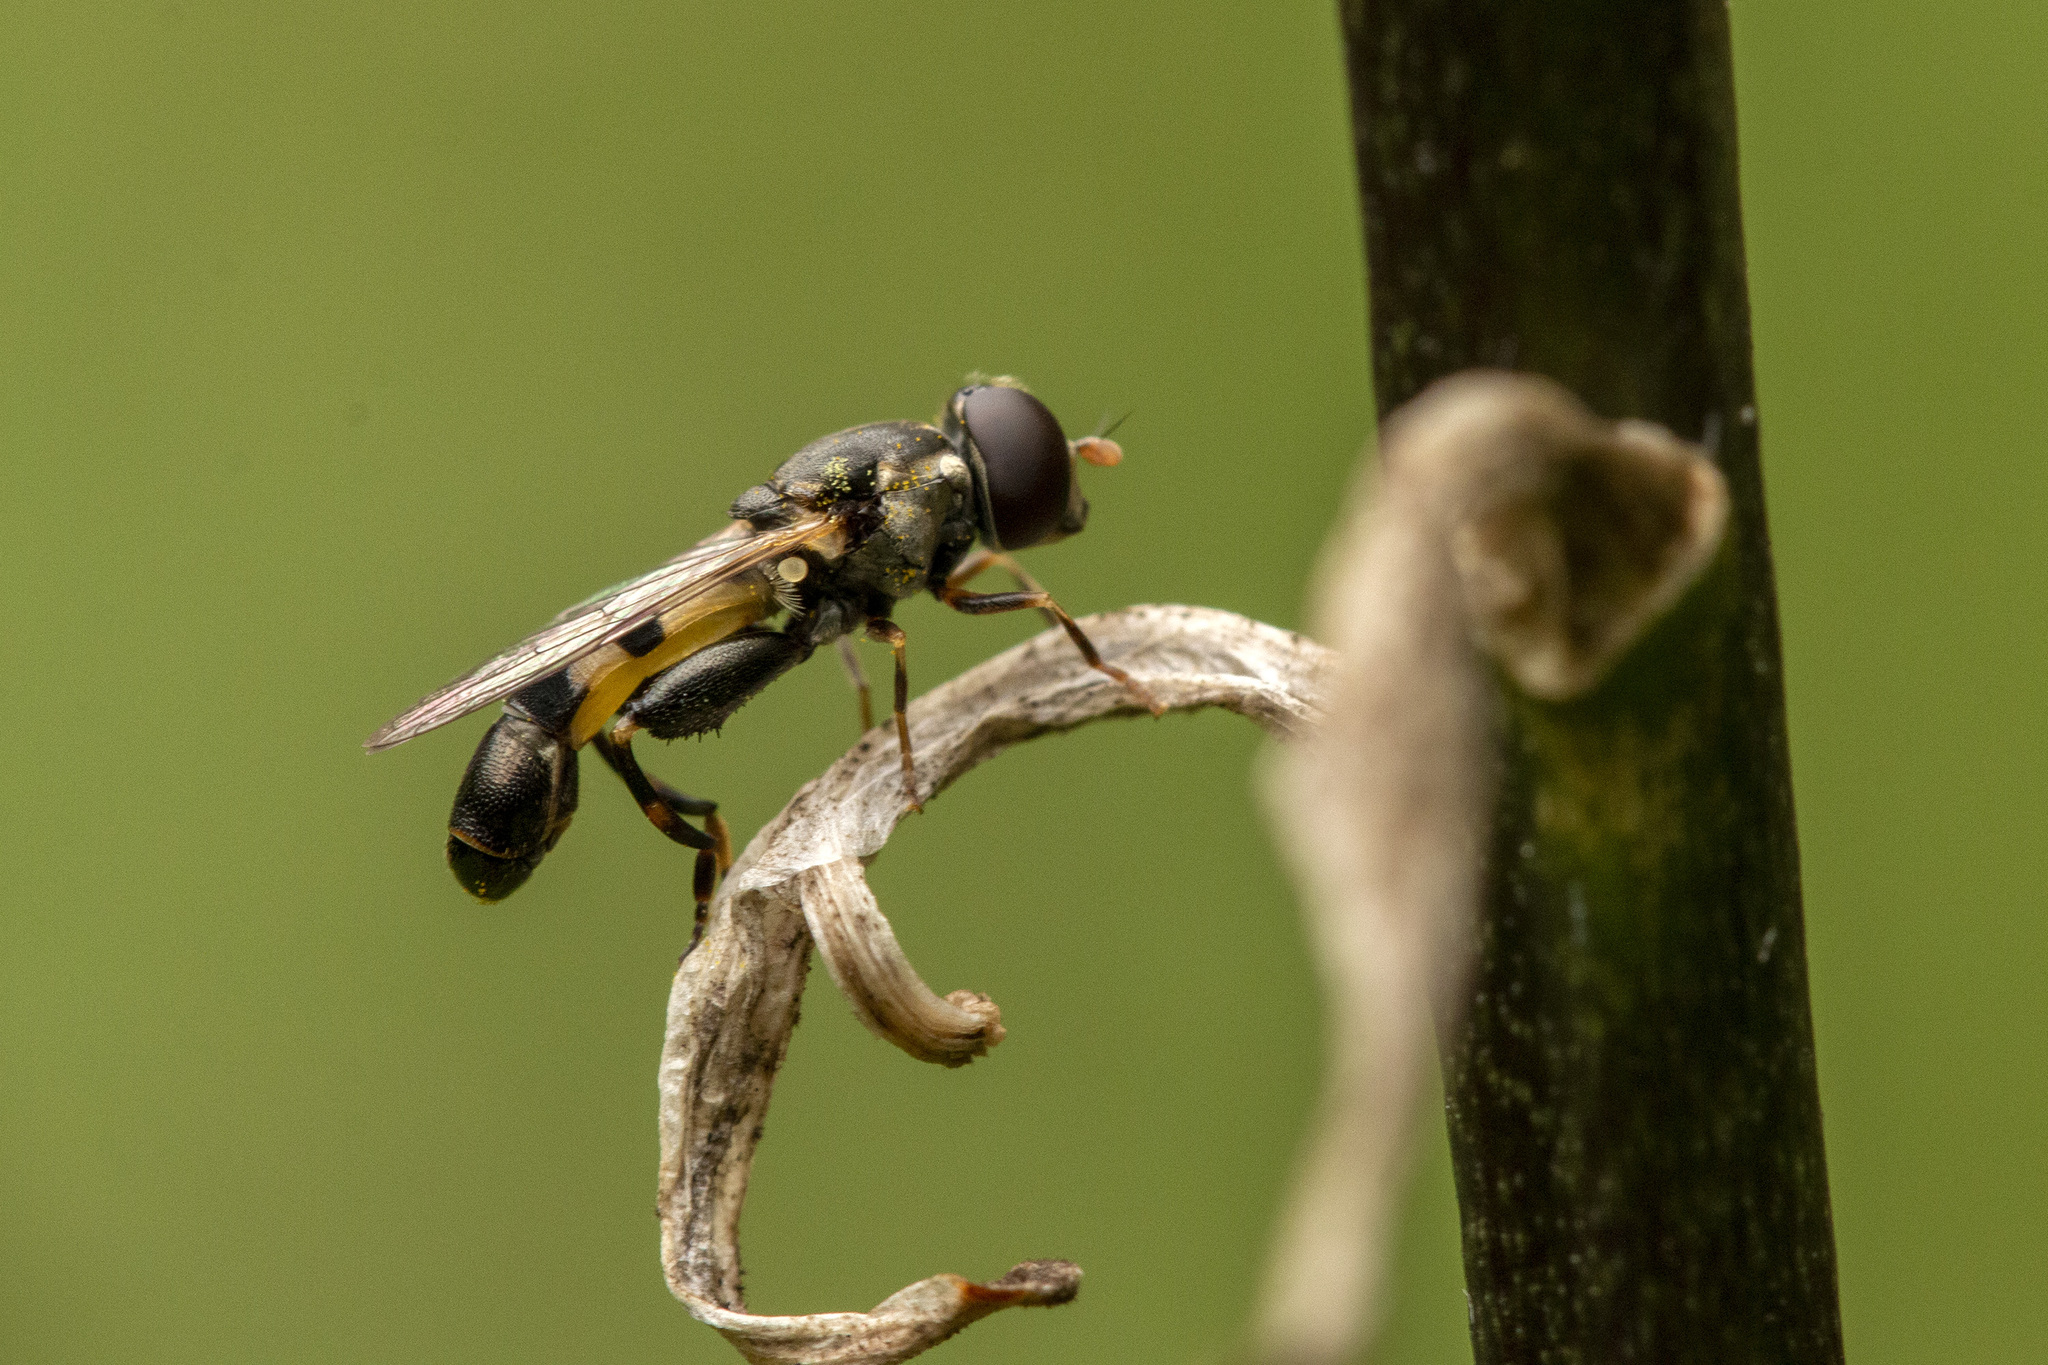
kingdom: Animalia
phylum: Arthropoda
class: Insecta
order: Diptera
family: Syrphidae
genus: Syritta
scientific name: Syritta pipiens
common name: Hover fly
